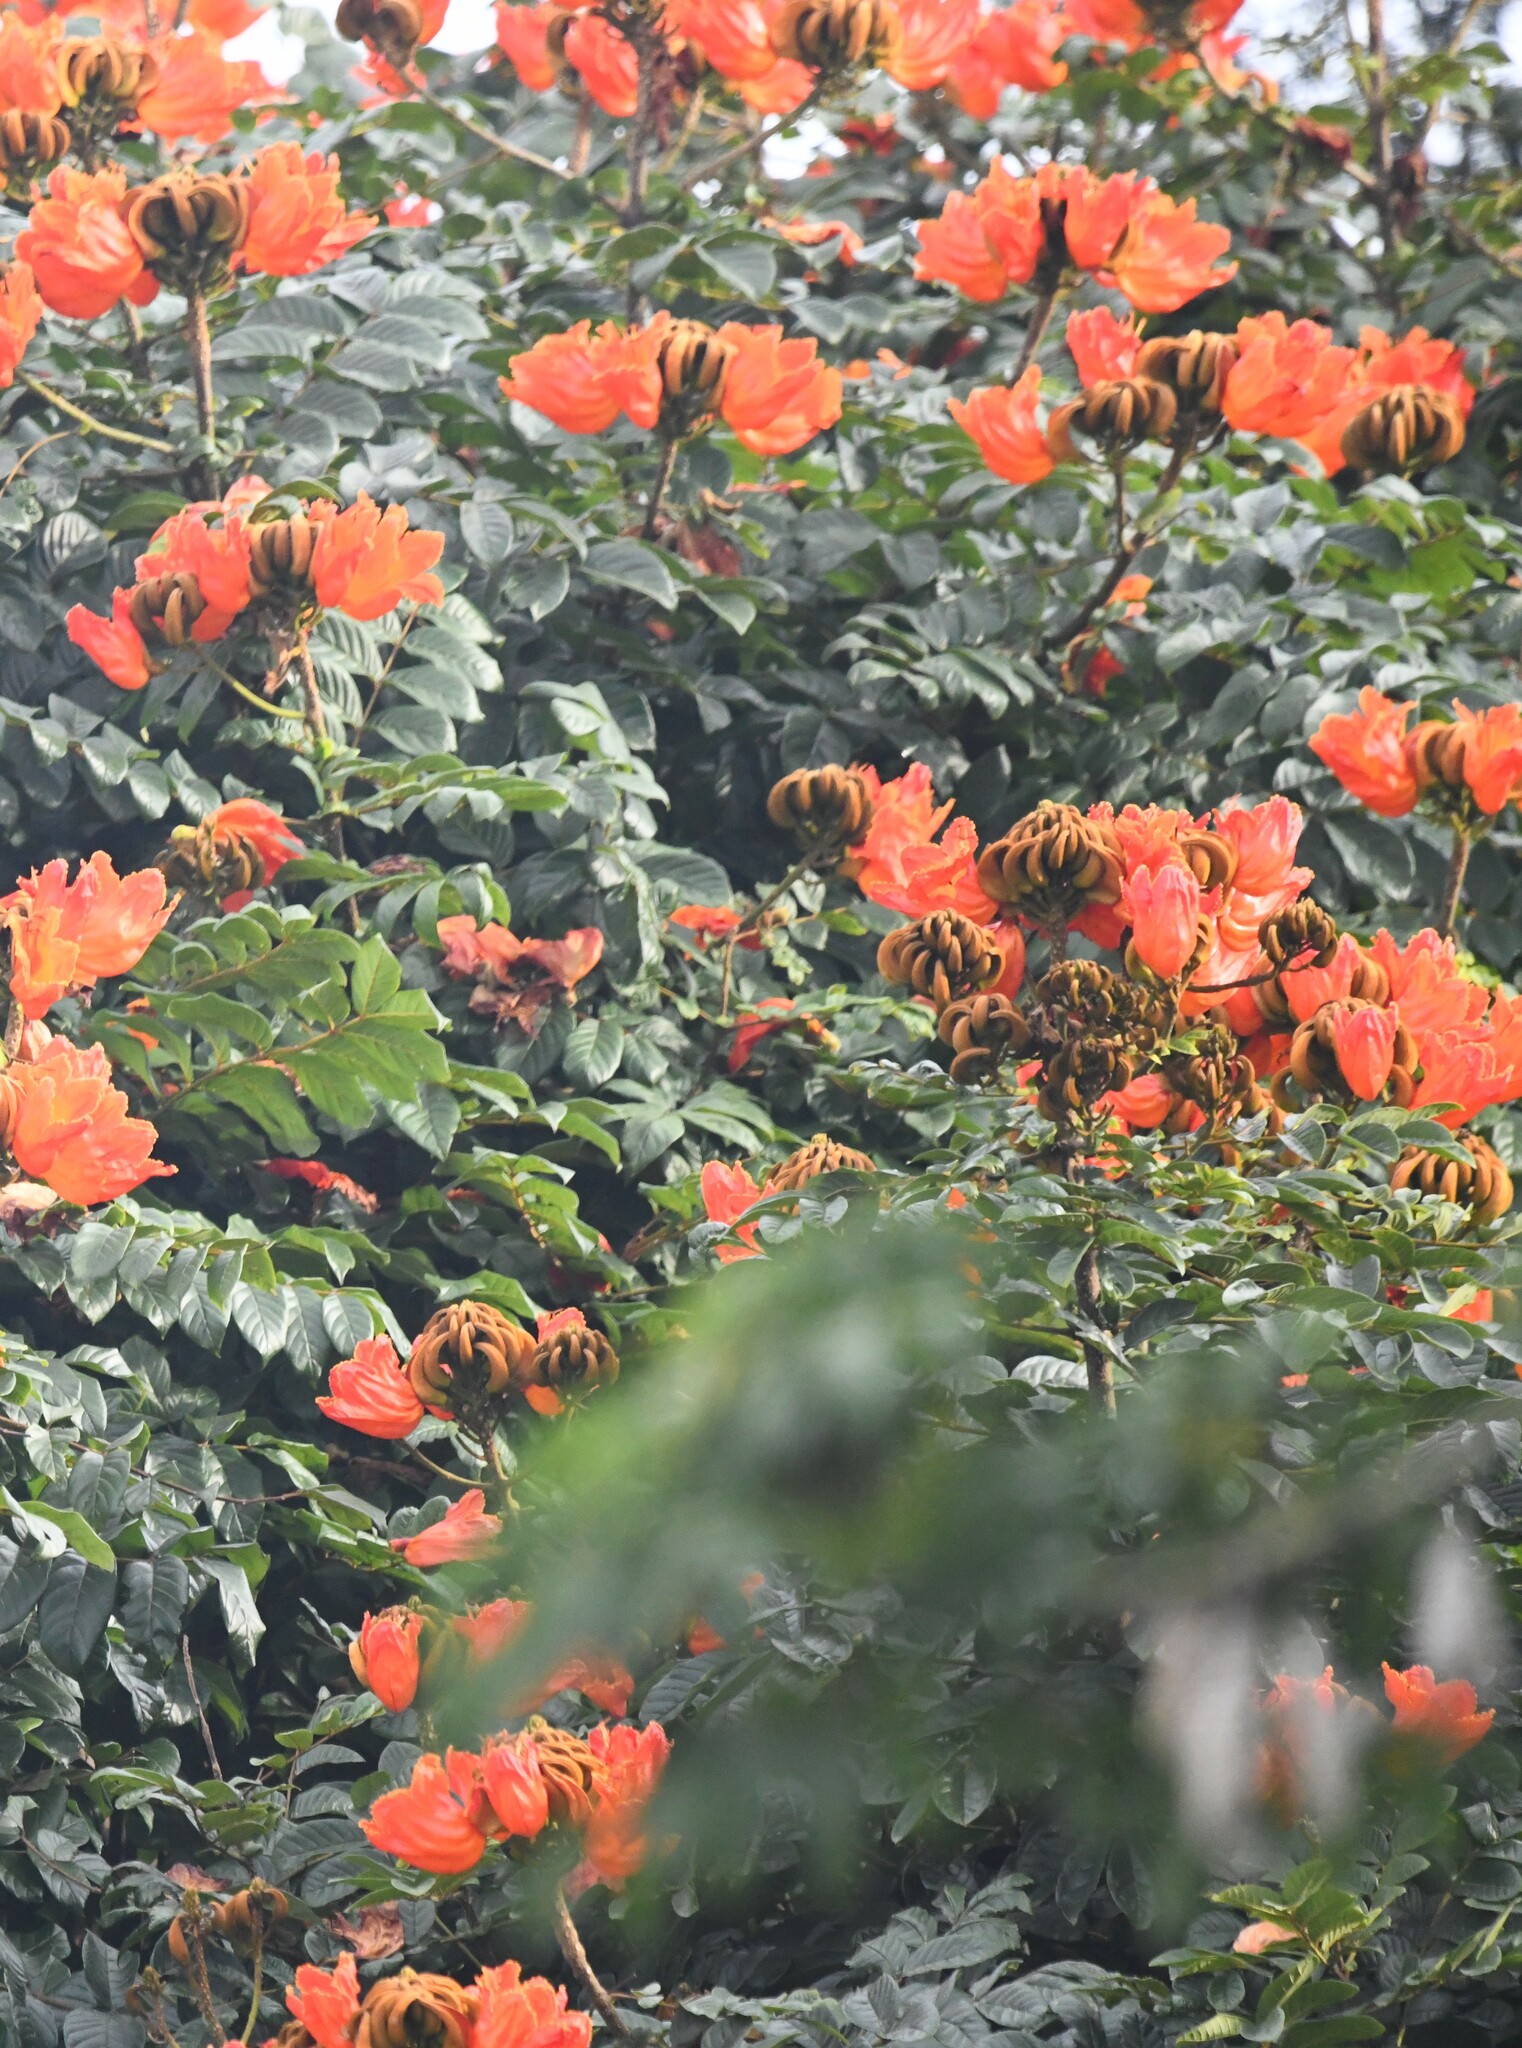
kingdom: Plantae
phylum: Tracheophyta
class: Magnoliopsida
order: Lamiales
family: Bignoniaceae
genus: Spathodea
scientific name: Spathodea campanulata
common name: African tuliptree
